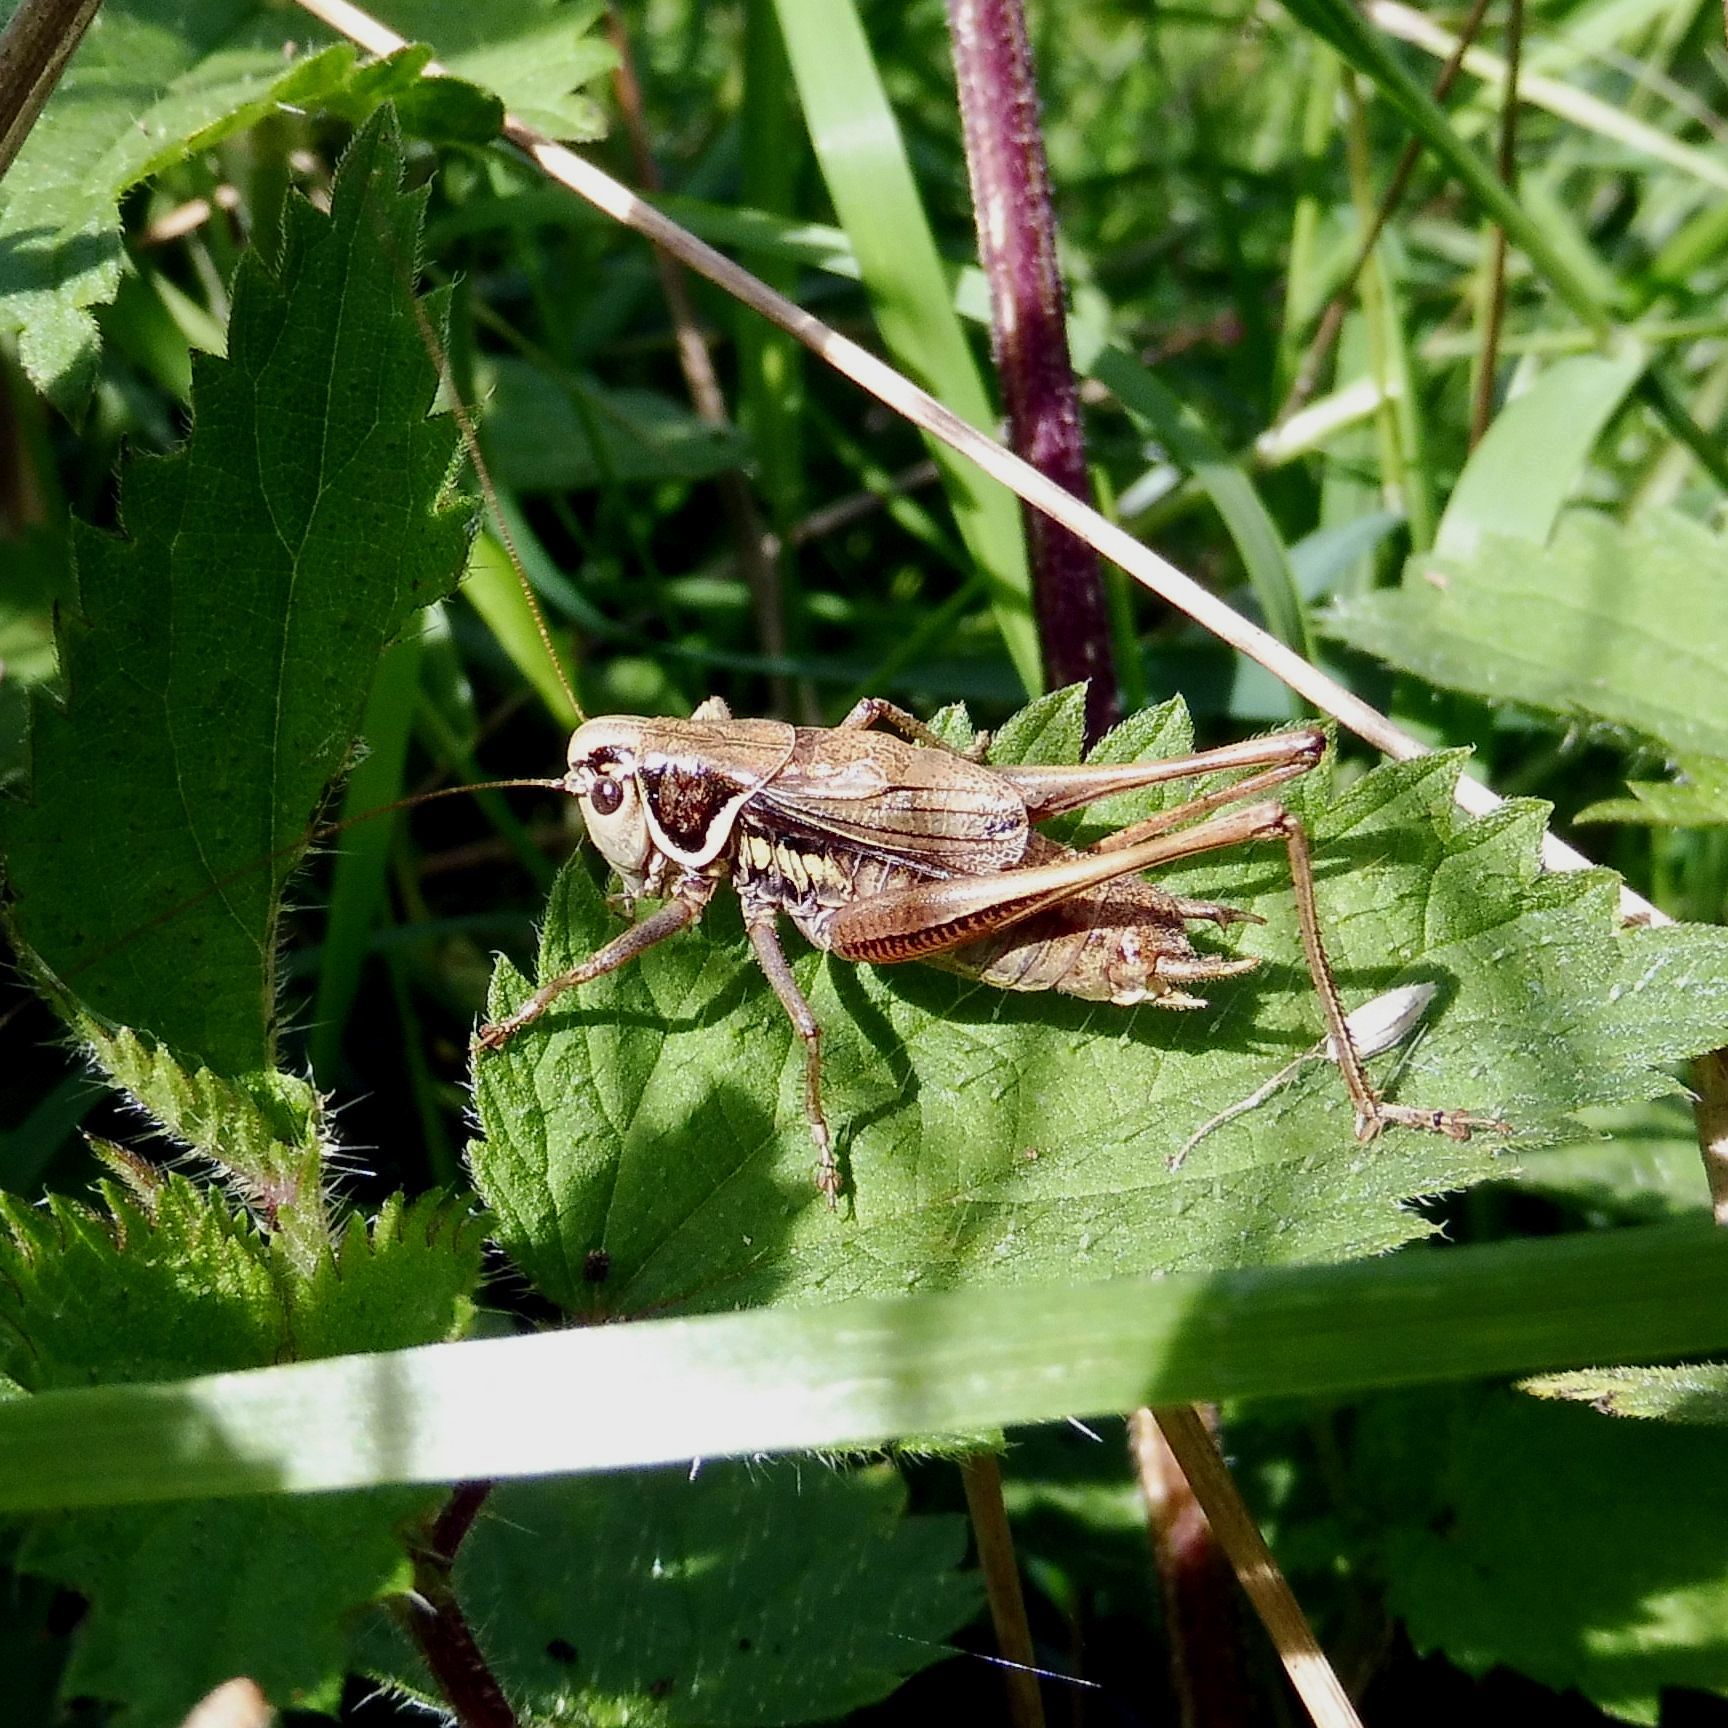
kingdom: Animalia
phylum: Arthropoda
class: Insecta
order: Orthoptera
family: Tettigoniidae
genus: Roeseliana
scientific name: Roeseliana roeselii
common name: Roesel's bush cricket
